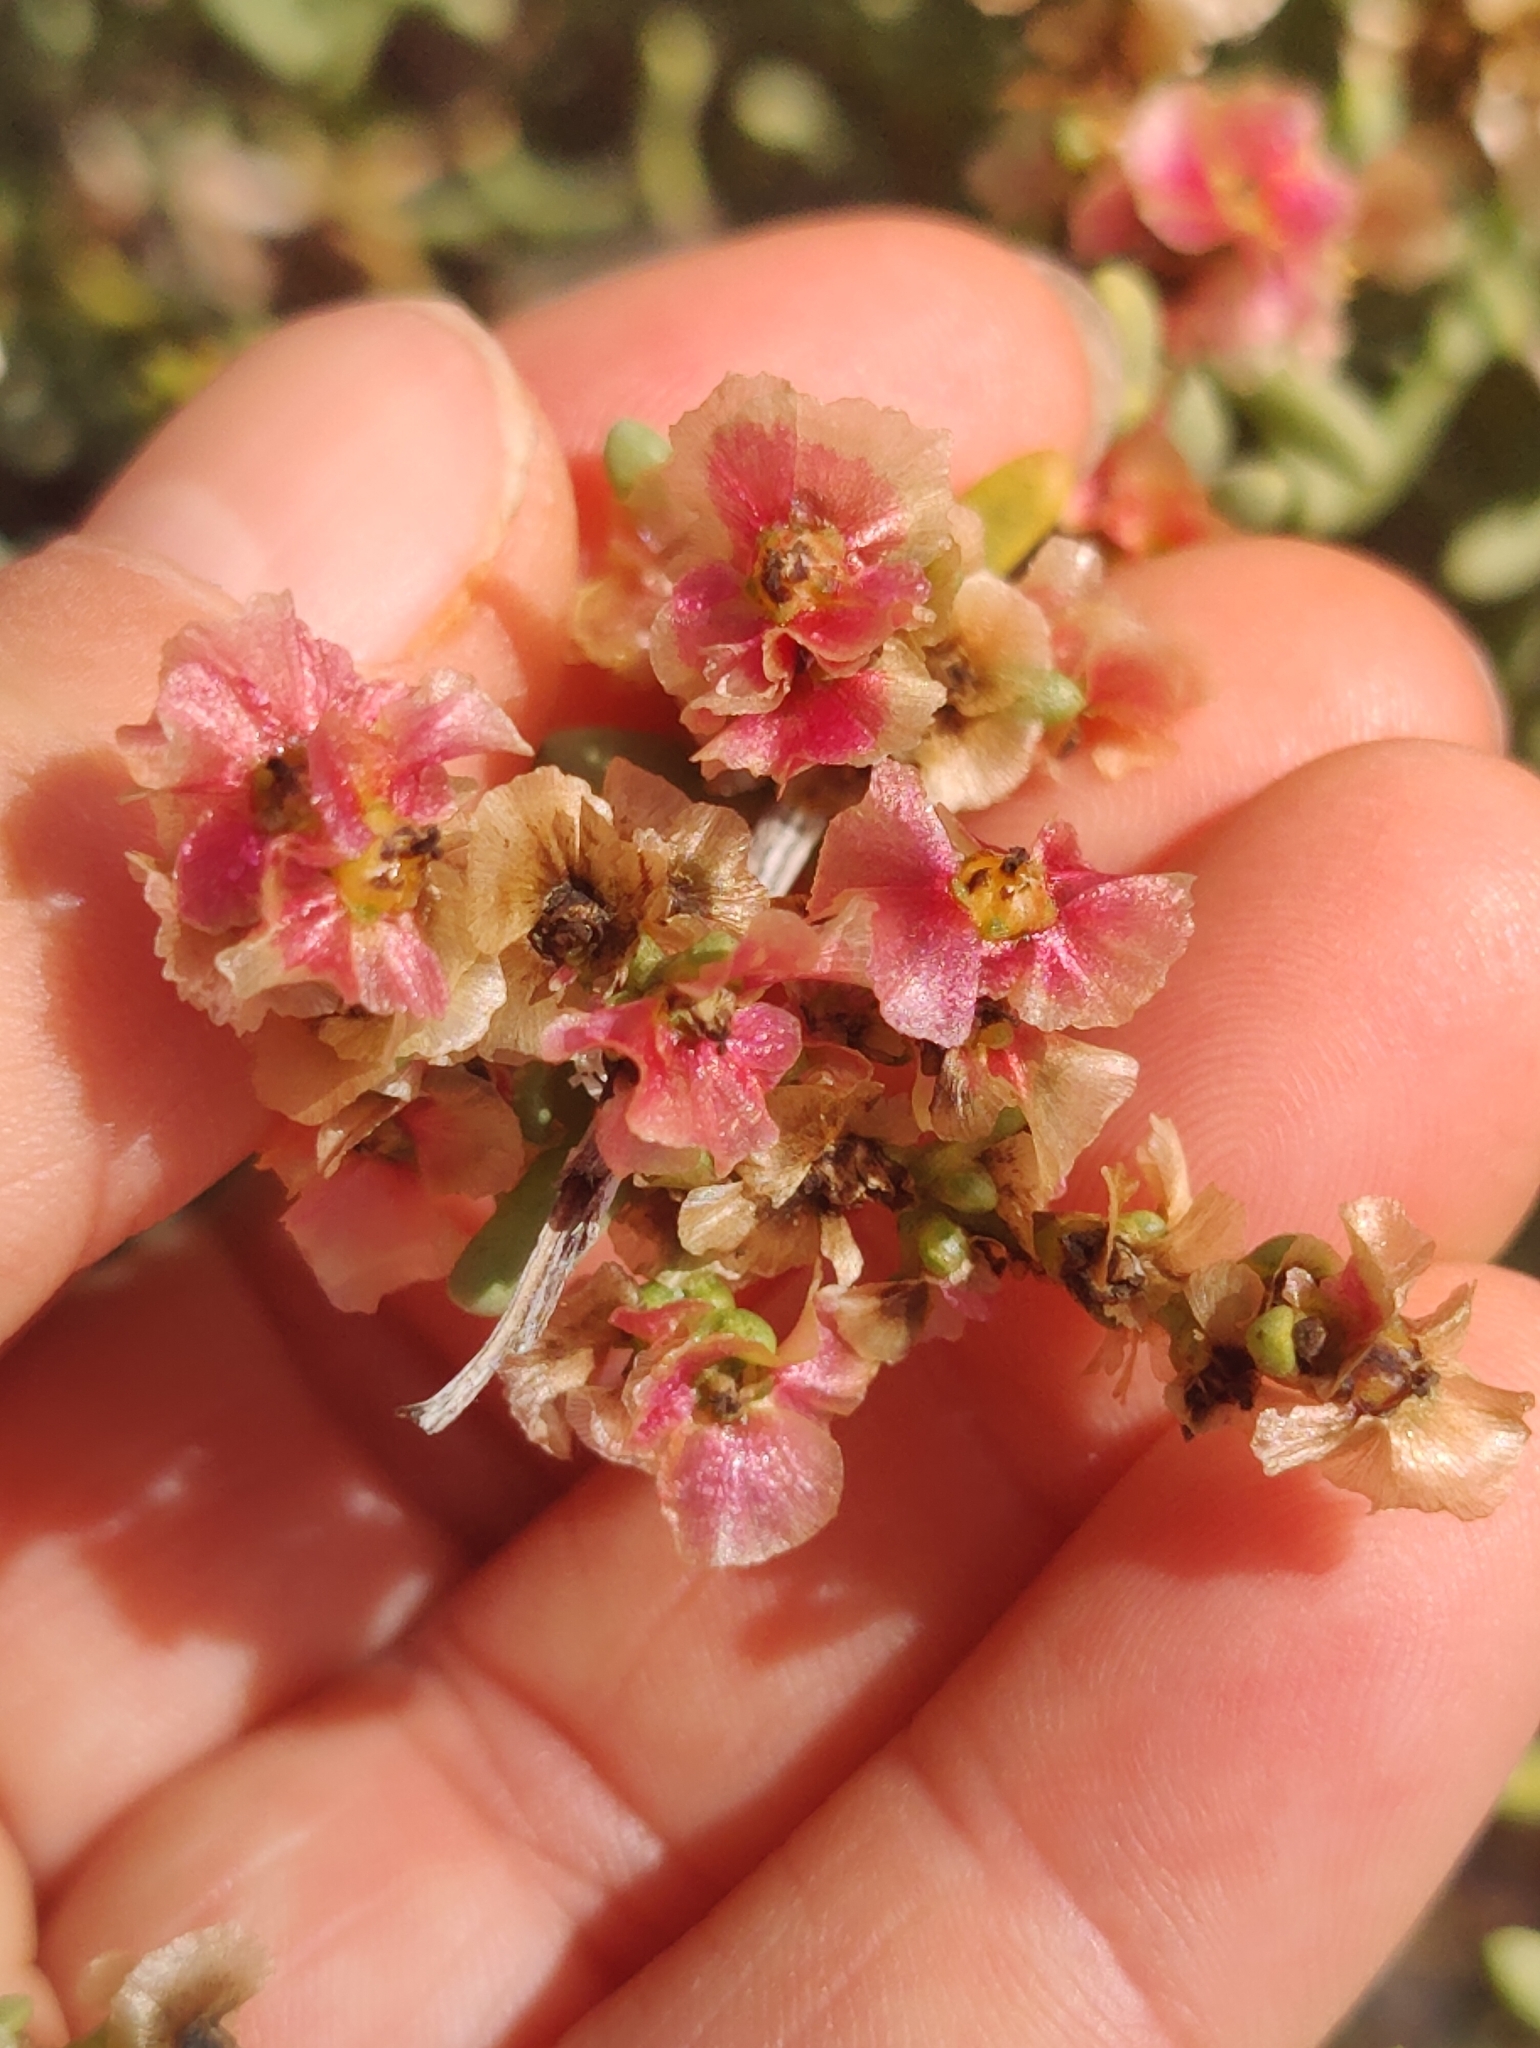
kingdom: Plantae
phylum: Tracheophyta
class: Magnoliopsida
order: Caryophyllales
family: Amaranthaceae
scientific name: Amaranthaceae
